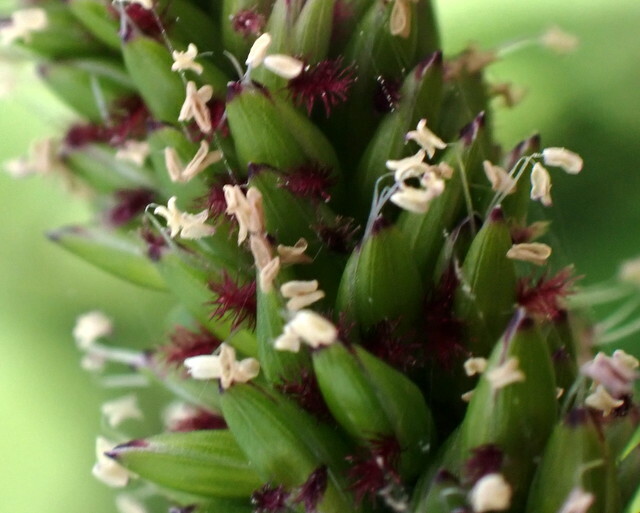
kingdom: Plantae
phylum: Tracheophyta
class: Liliopsida
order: Poales
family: Poaceae
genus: Sacciolepis
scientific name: Sacciolepis striata
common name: American cupscale
